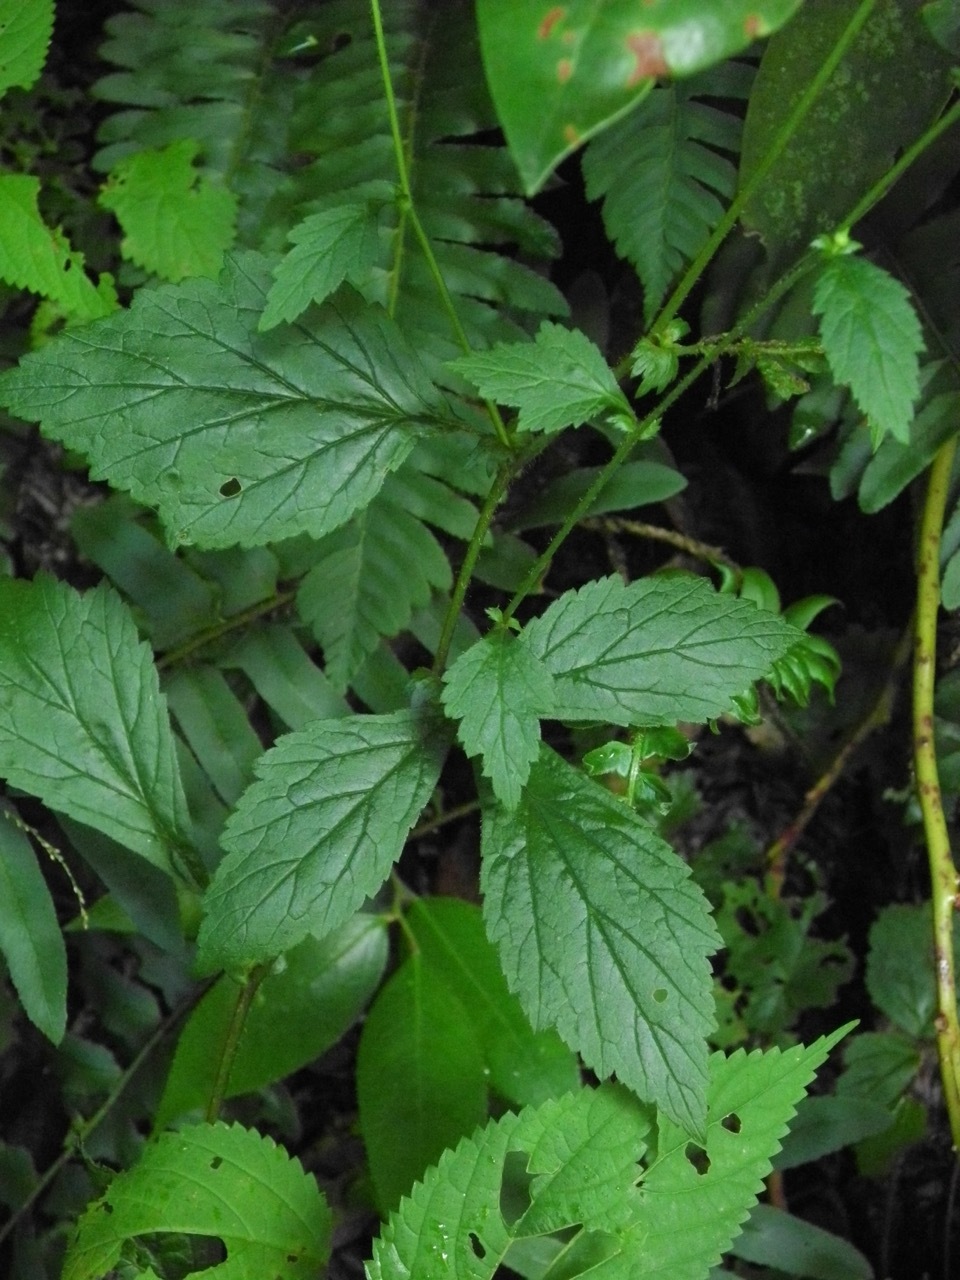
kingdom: Plantae
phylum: Tracheophyta
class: Magnoliopsida
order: Rosales
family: Rosaceae
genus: Geum
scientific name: Geum canadense
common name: White avens
